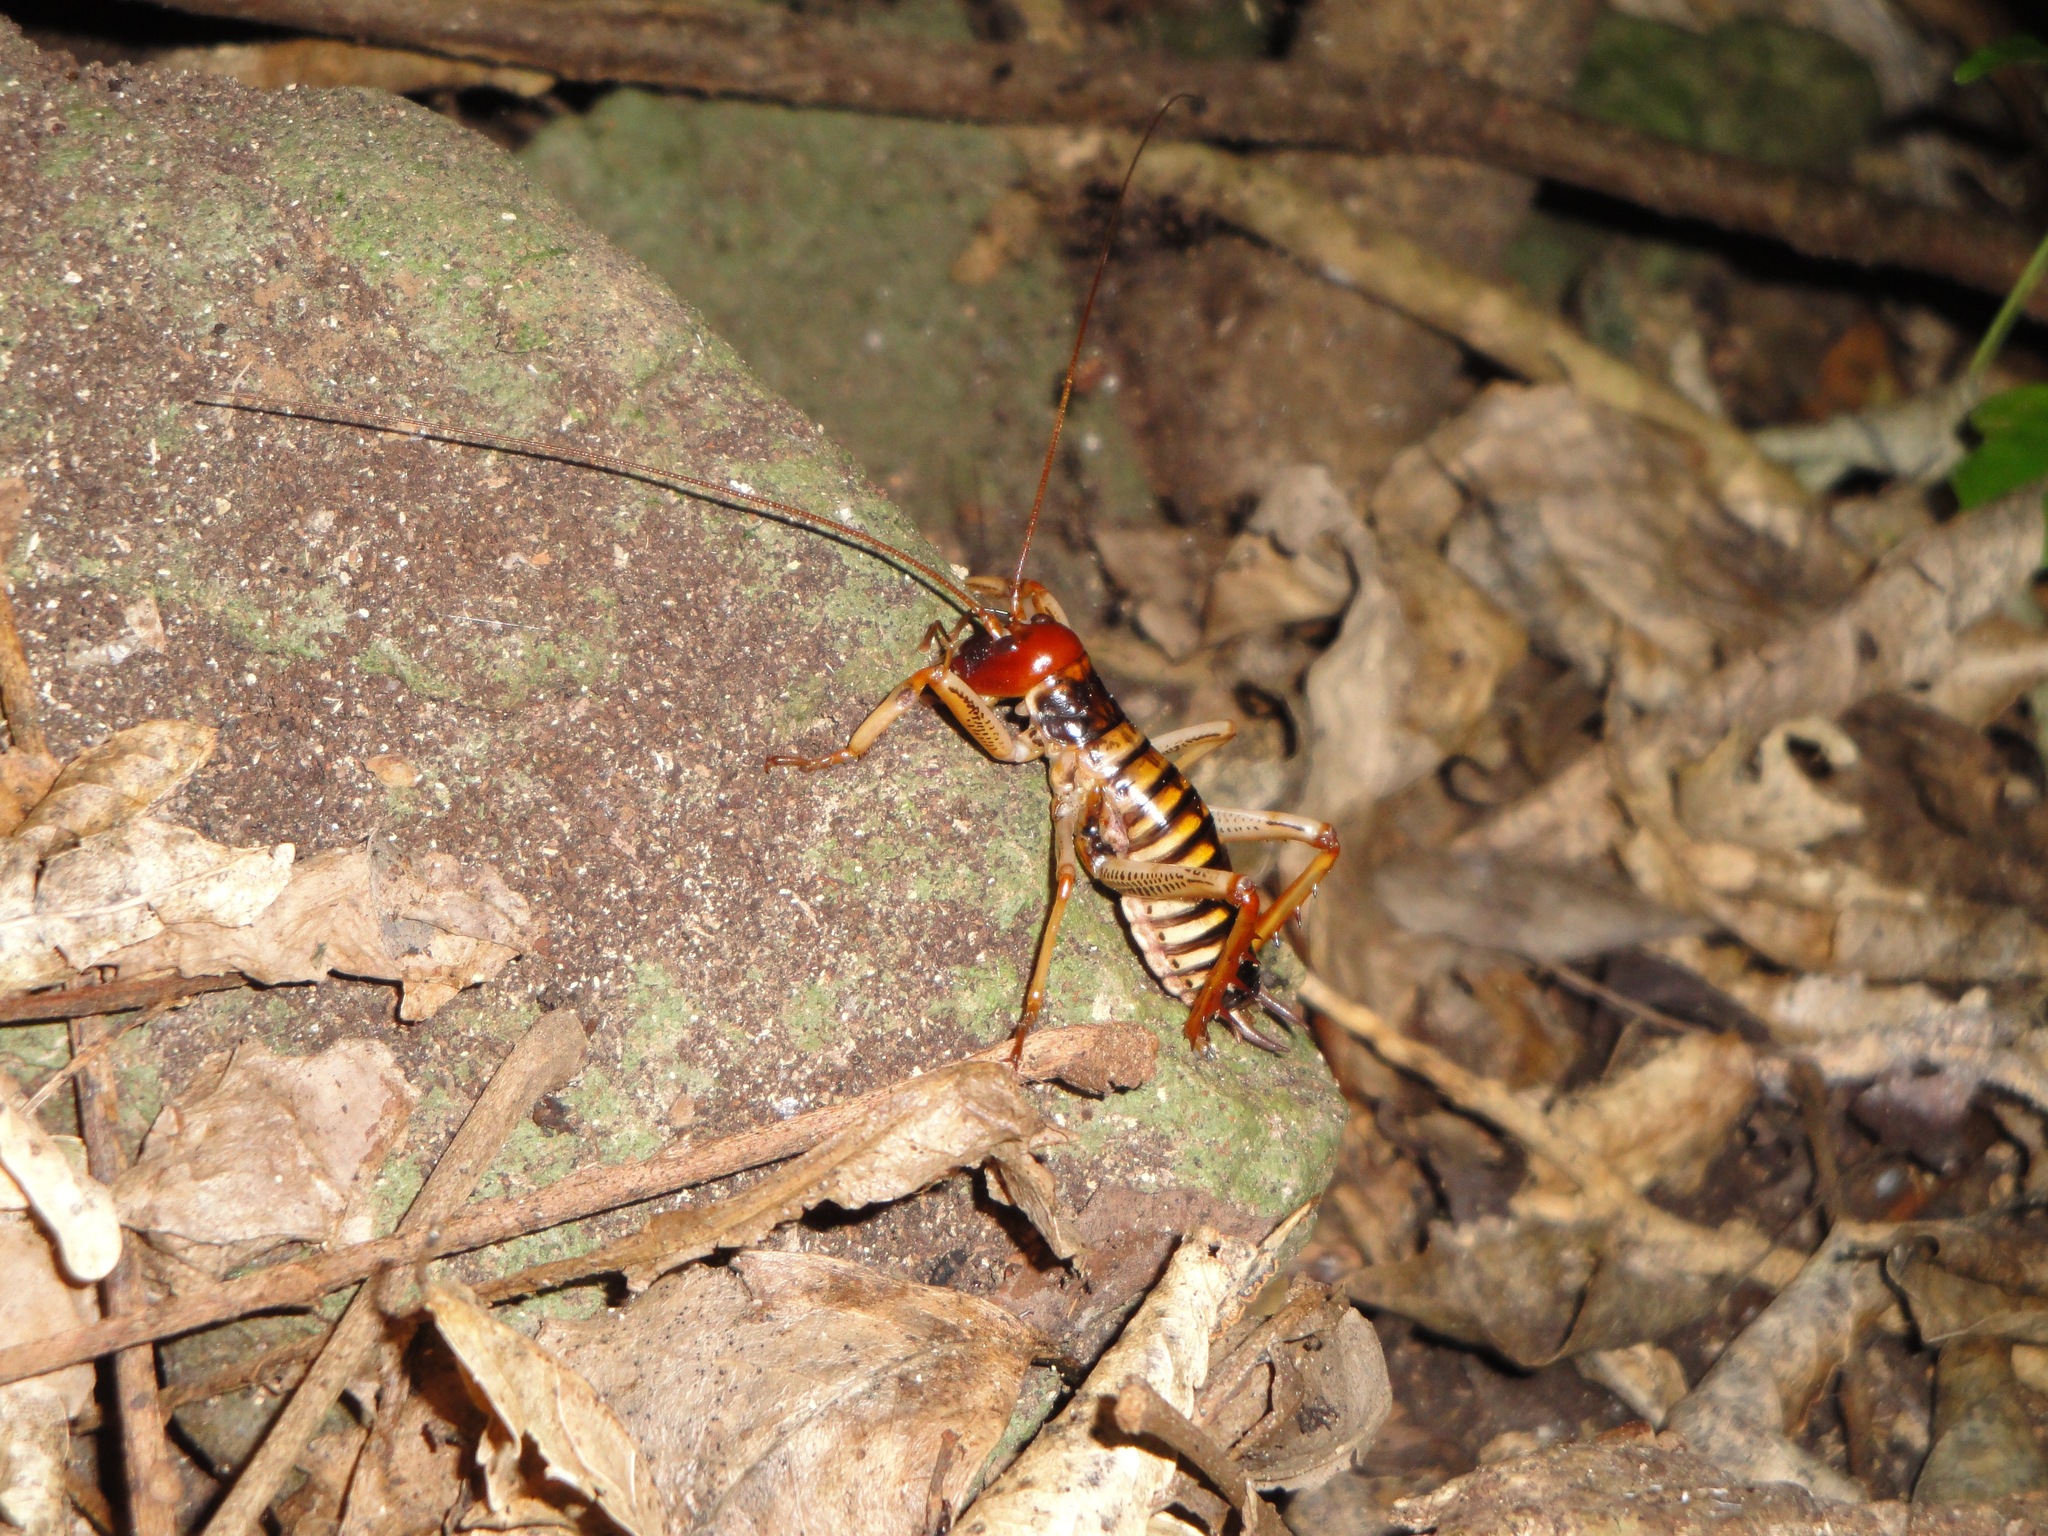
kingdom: Animalia
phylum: Arthropoda
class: Insecta
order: Orthoptera
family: Anostostomatidae
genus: Hemideina
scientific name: Hemideina crassidens
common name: Wellington tree weta
